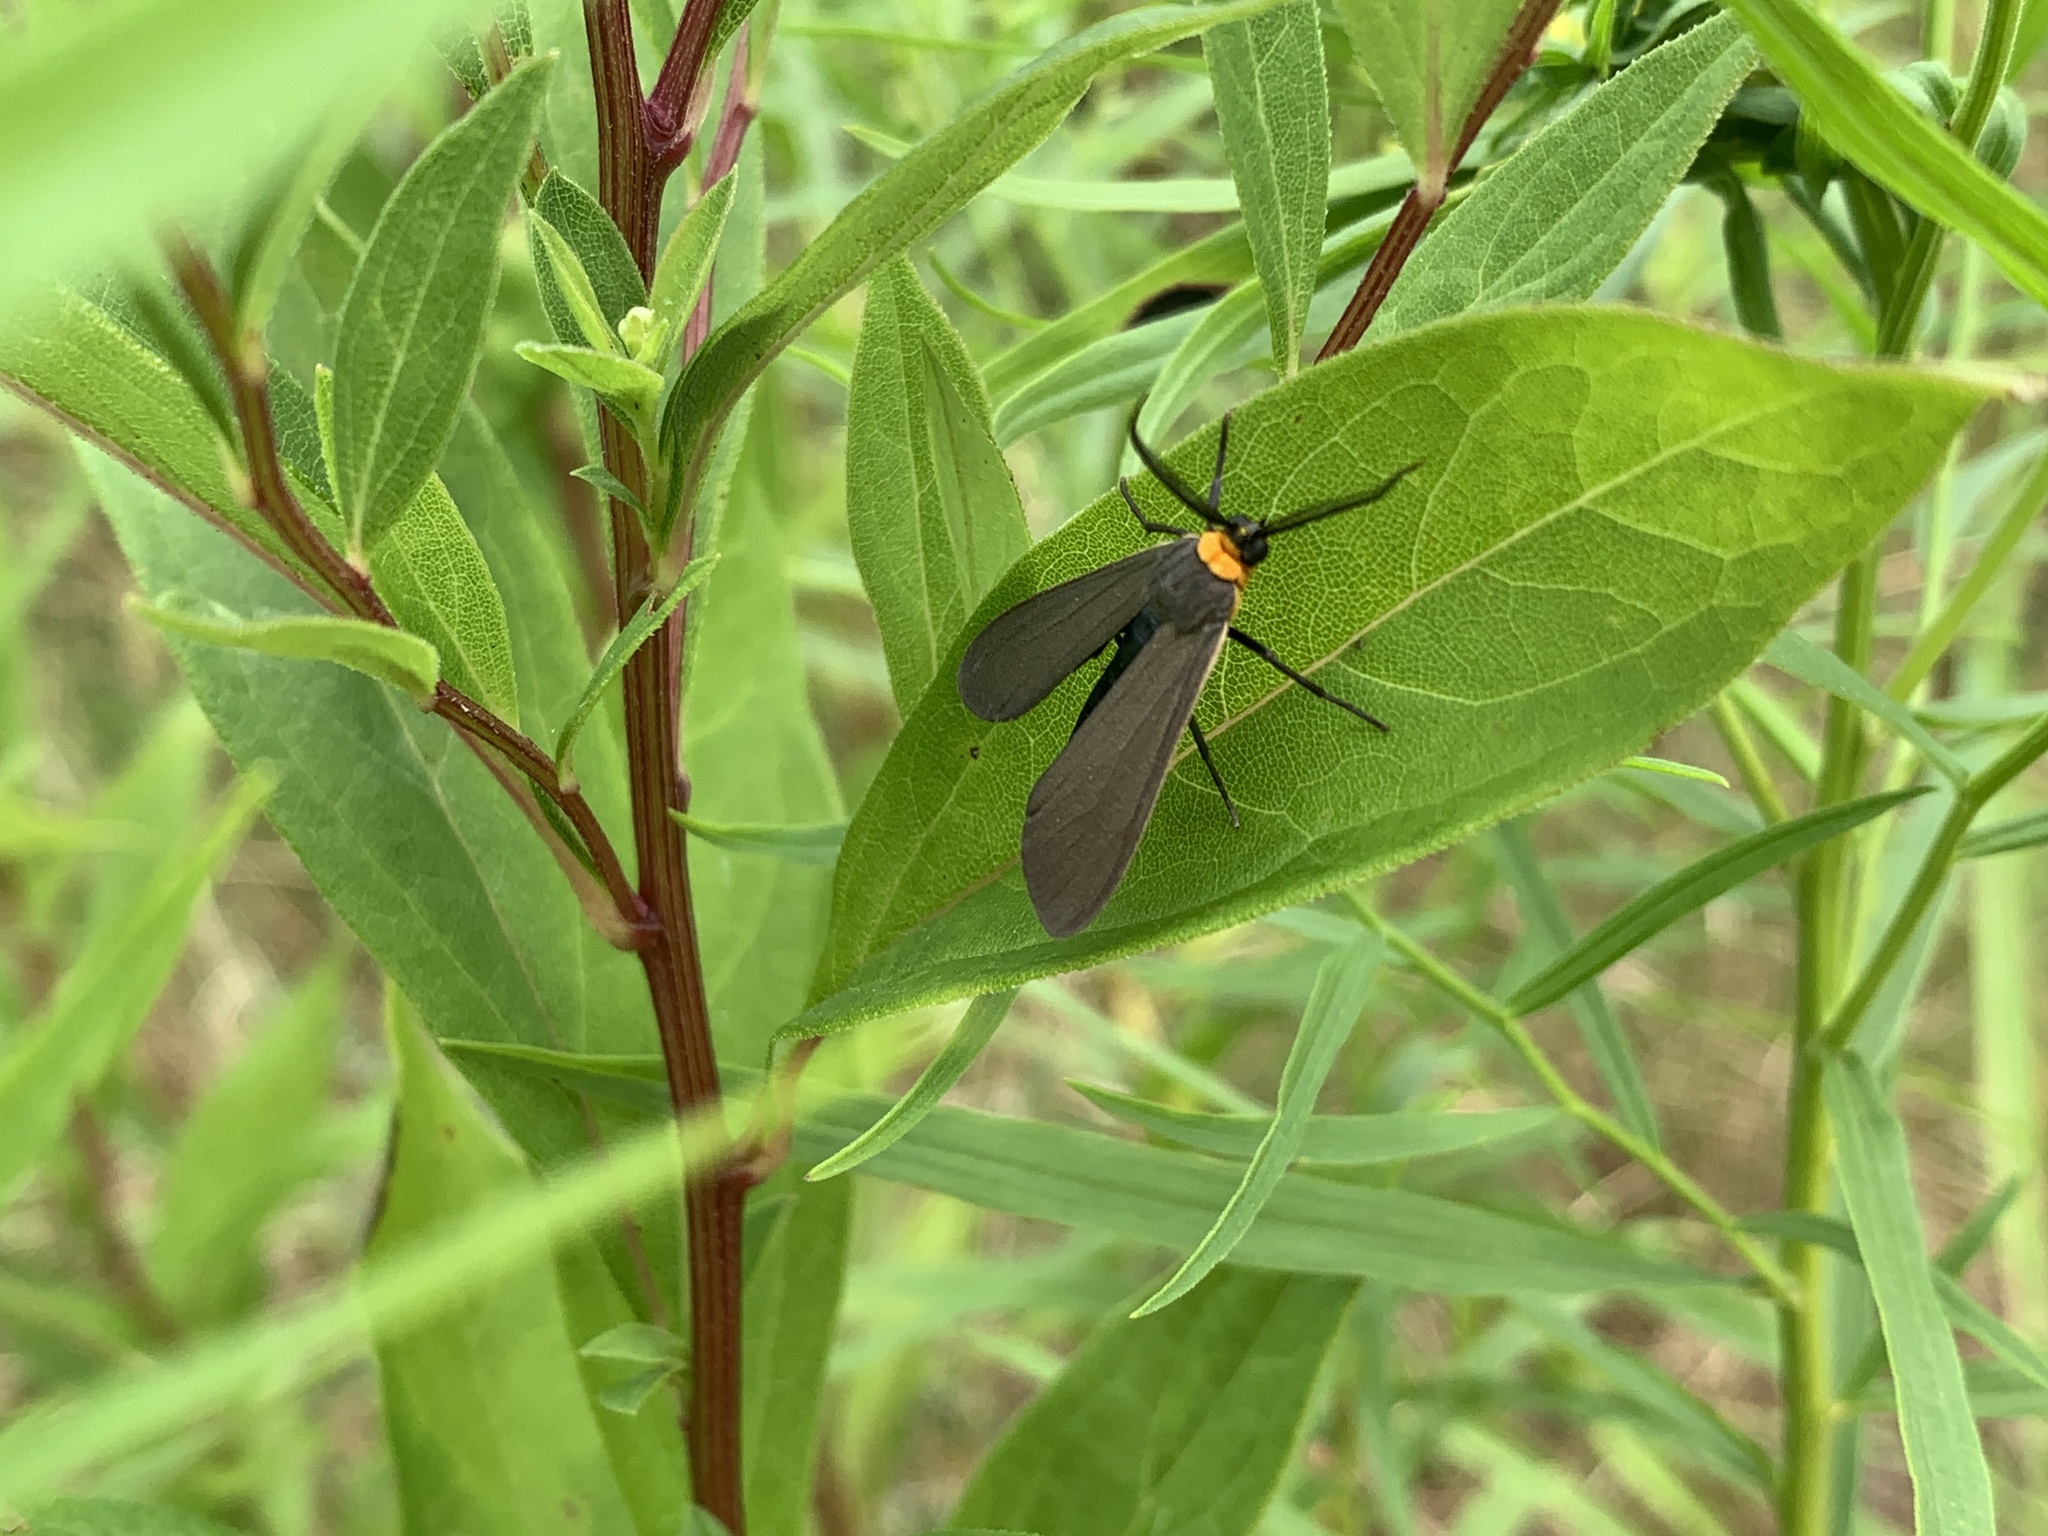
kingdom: Animalia
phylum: Arthropoda
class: Insecta
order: Lepidoptera
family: Erebidae
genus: Cisseps
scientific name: Cisseps fulvicollis
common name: Yellow-collared scape moth
